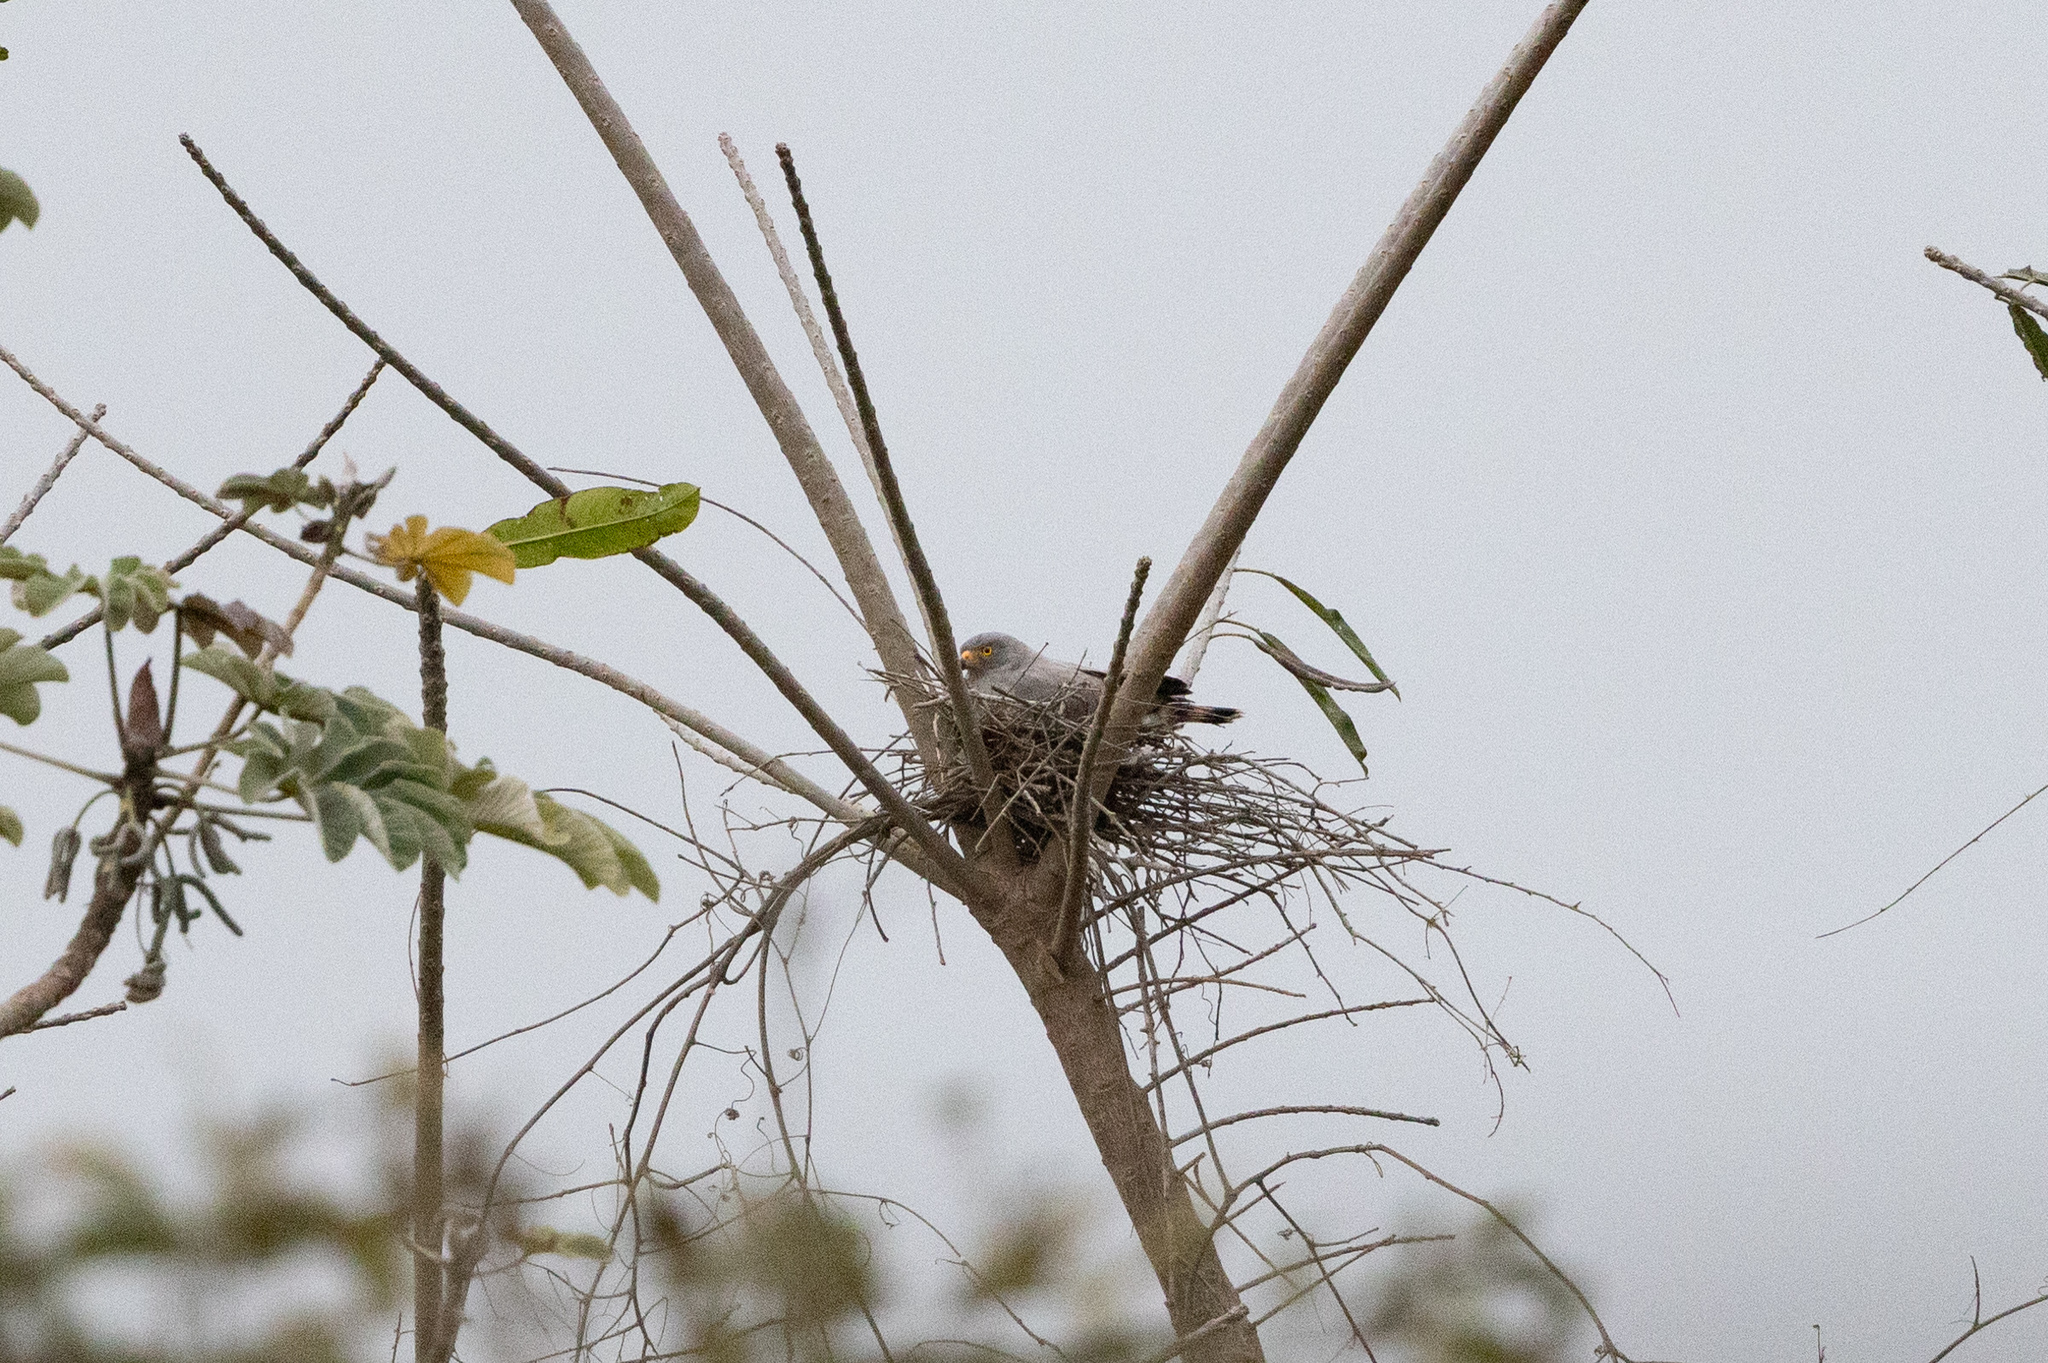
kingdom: Animalia
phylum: Chordata
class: Aves
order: Accipitriformes
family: Accipitridae
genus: Rupornis
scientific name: Rupornis magnirostris
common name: Roadside hawk
